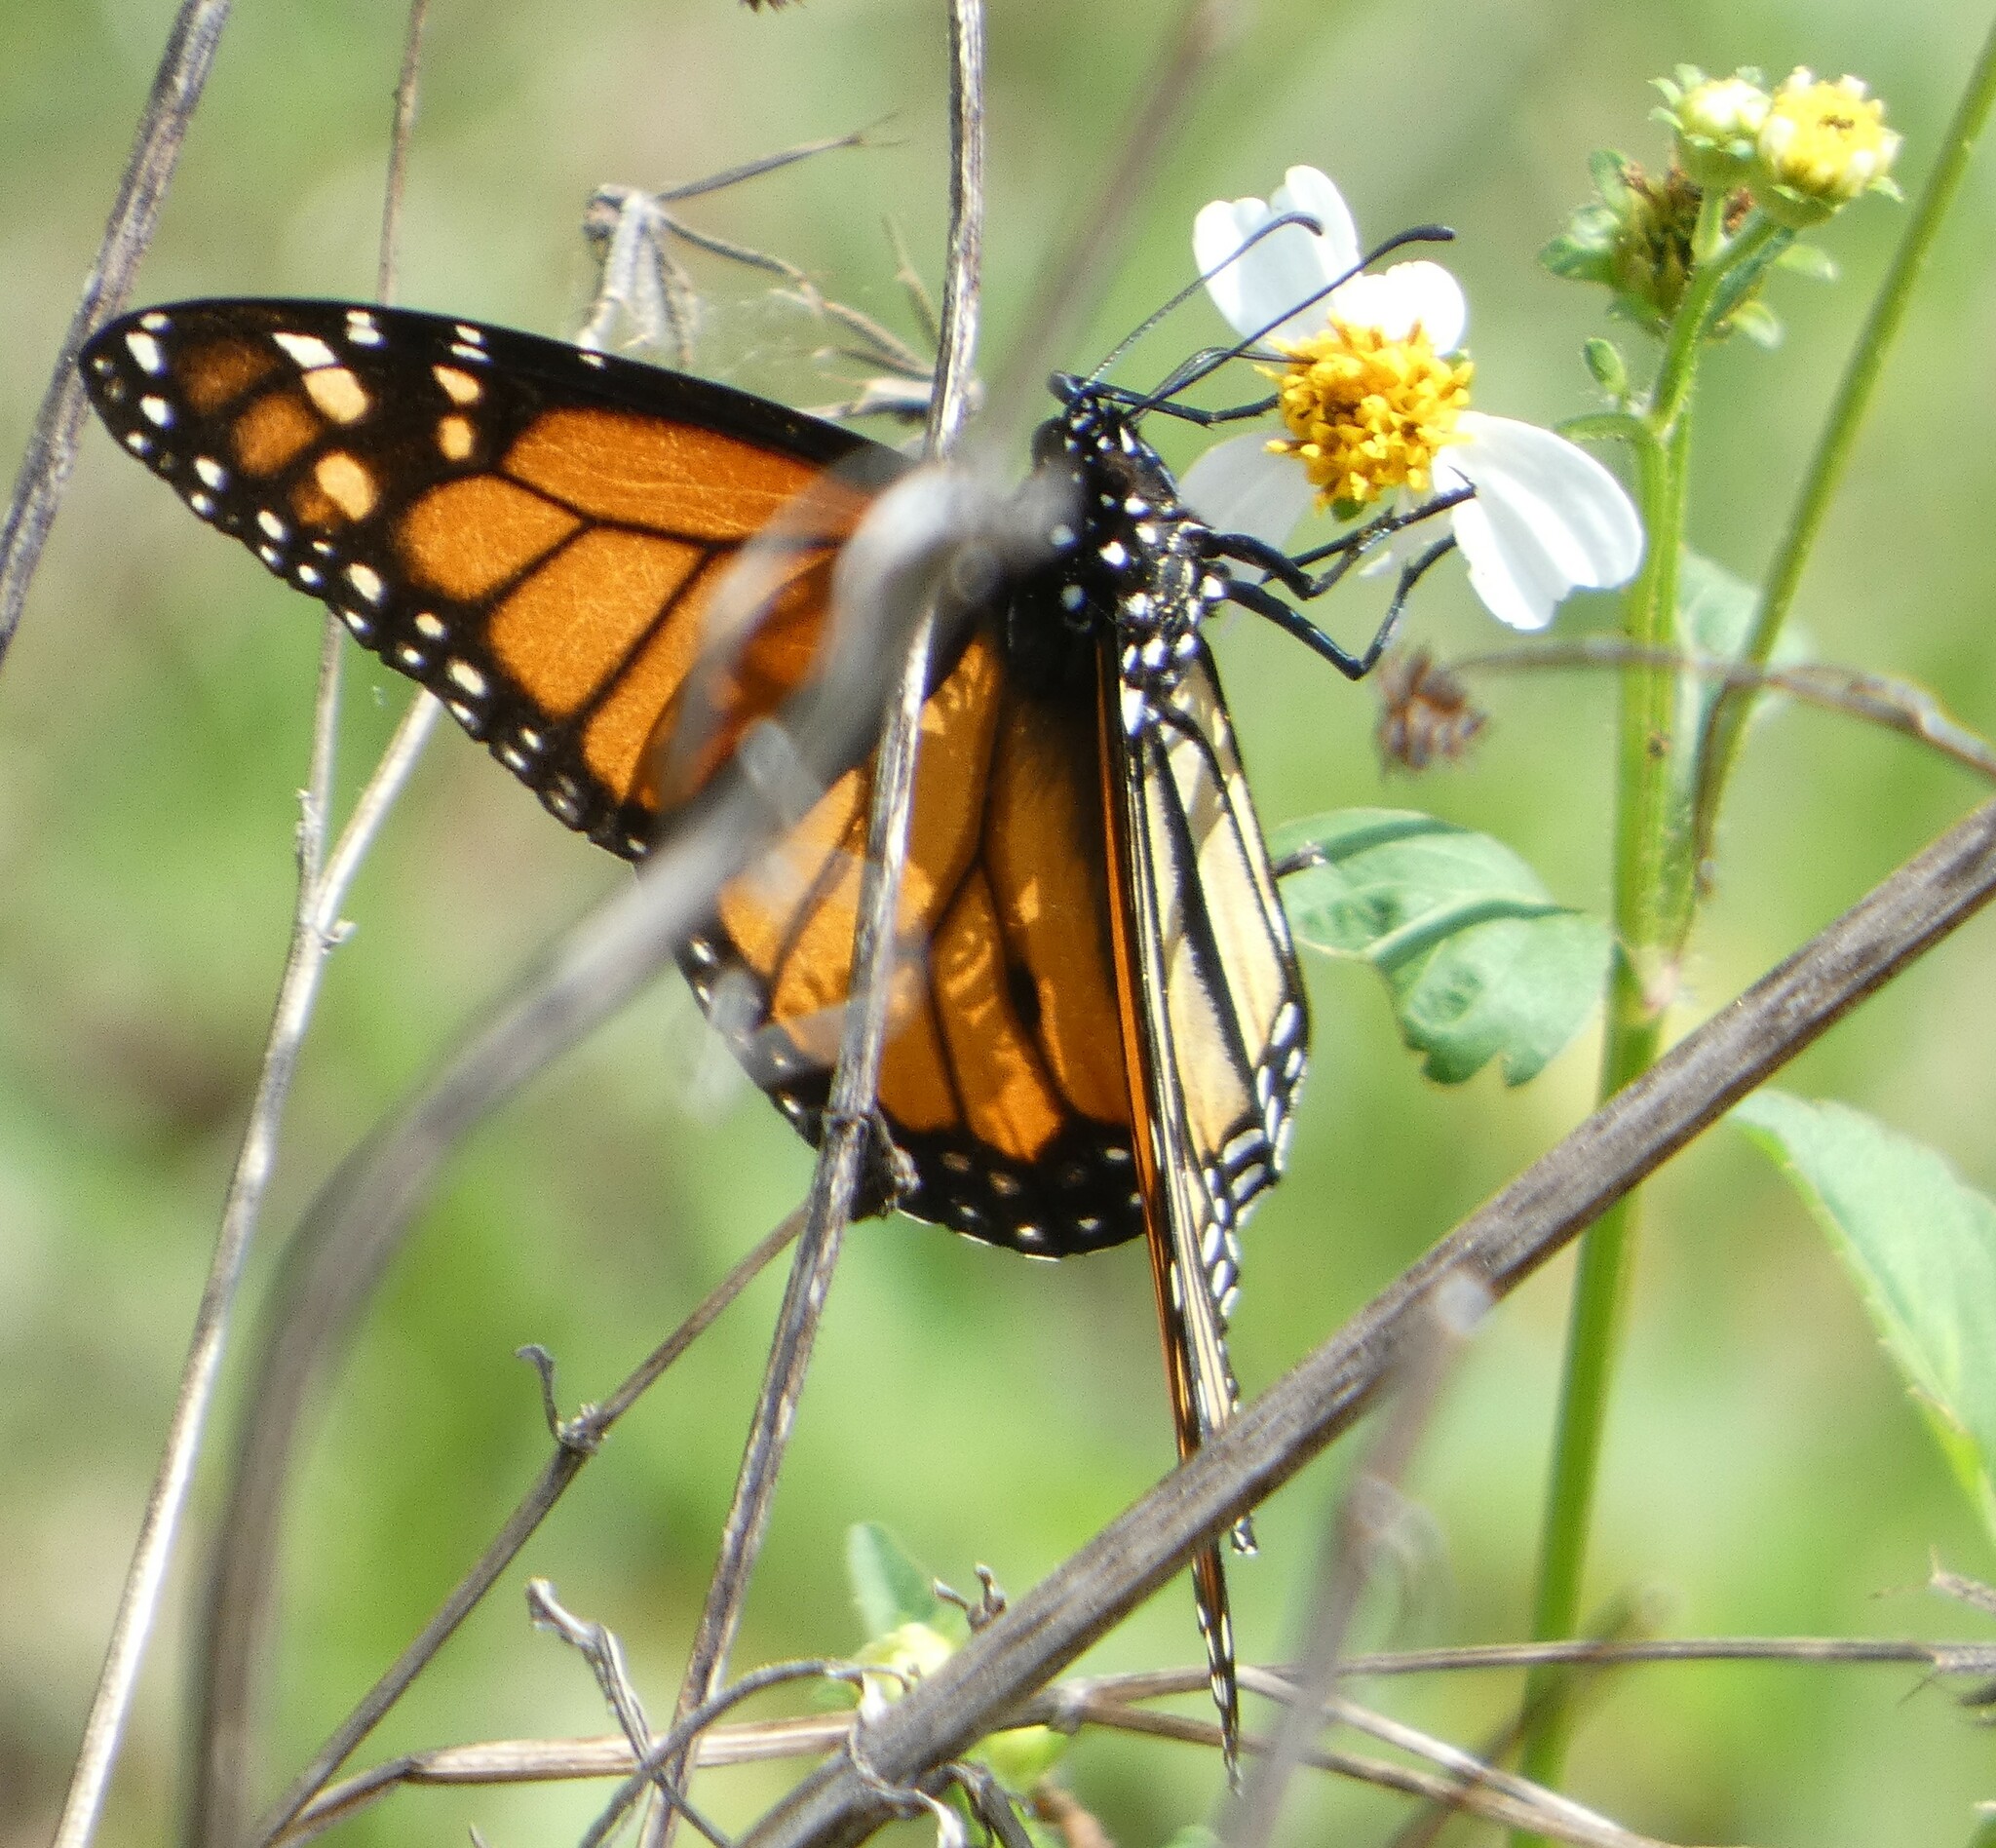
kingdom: Animalia
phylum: Arthropoda
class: Insecta
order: Lepidoptera
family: Nymphalidae
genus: Danaus
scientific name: Danaus plexippus
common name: Monarch
